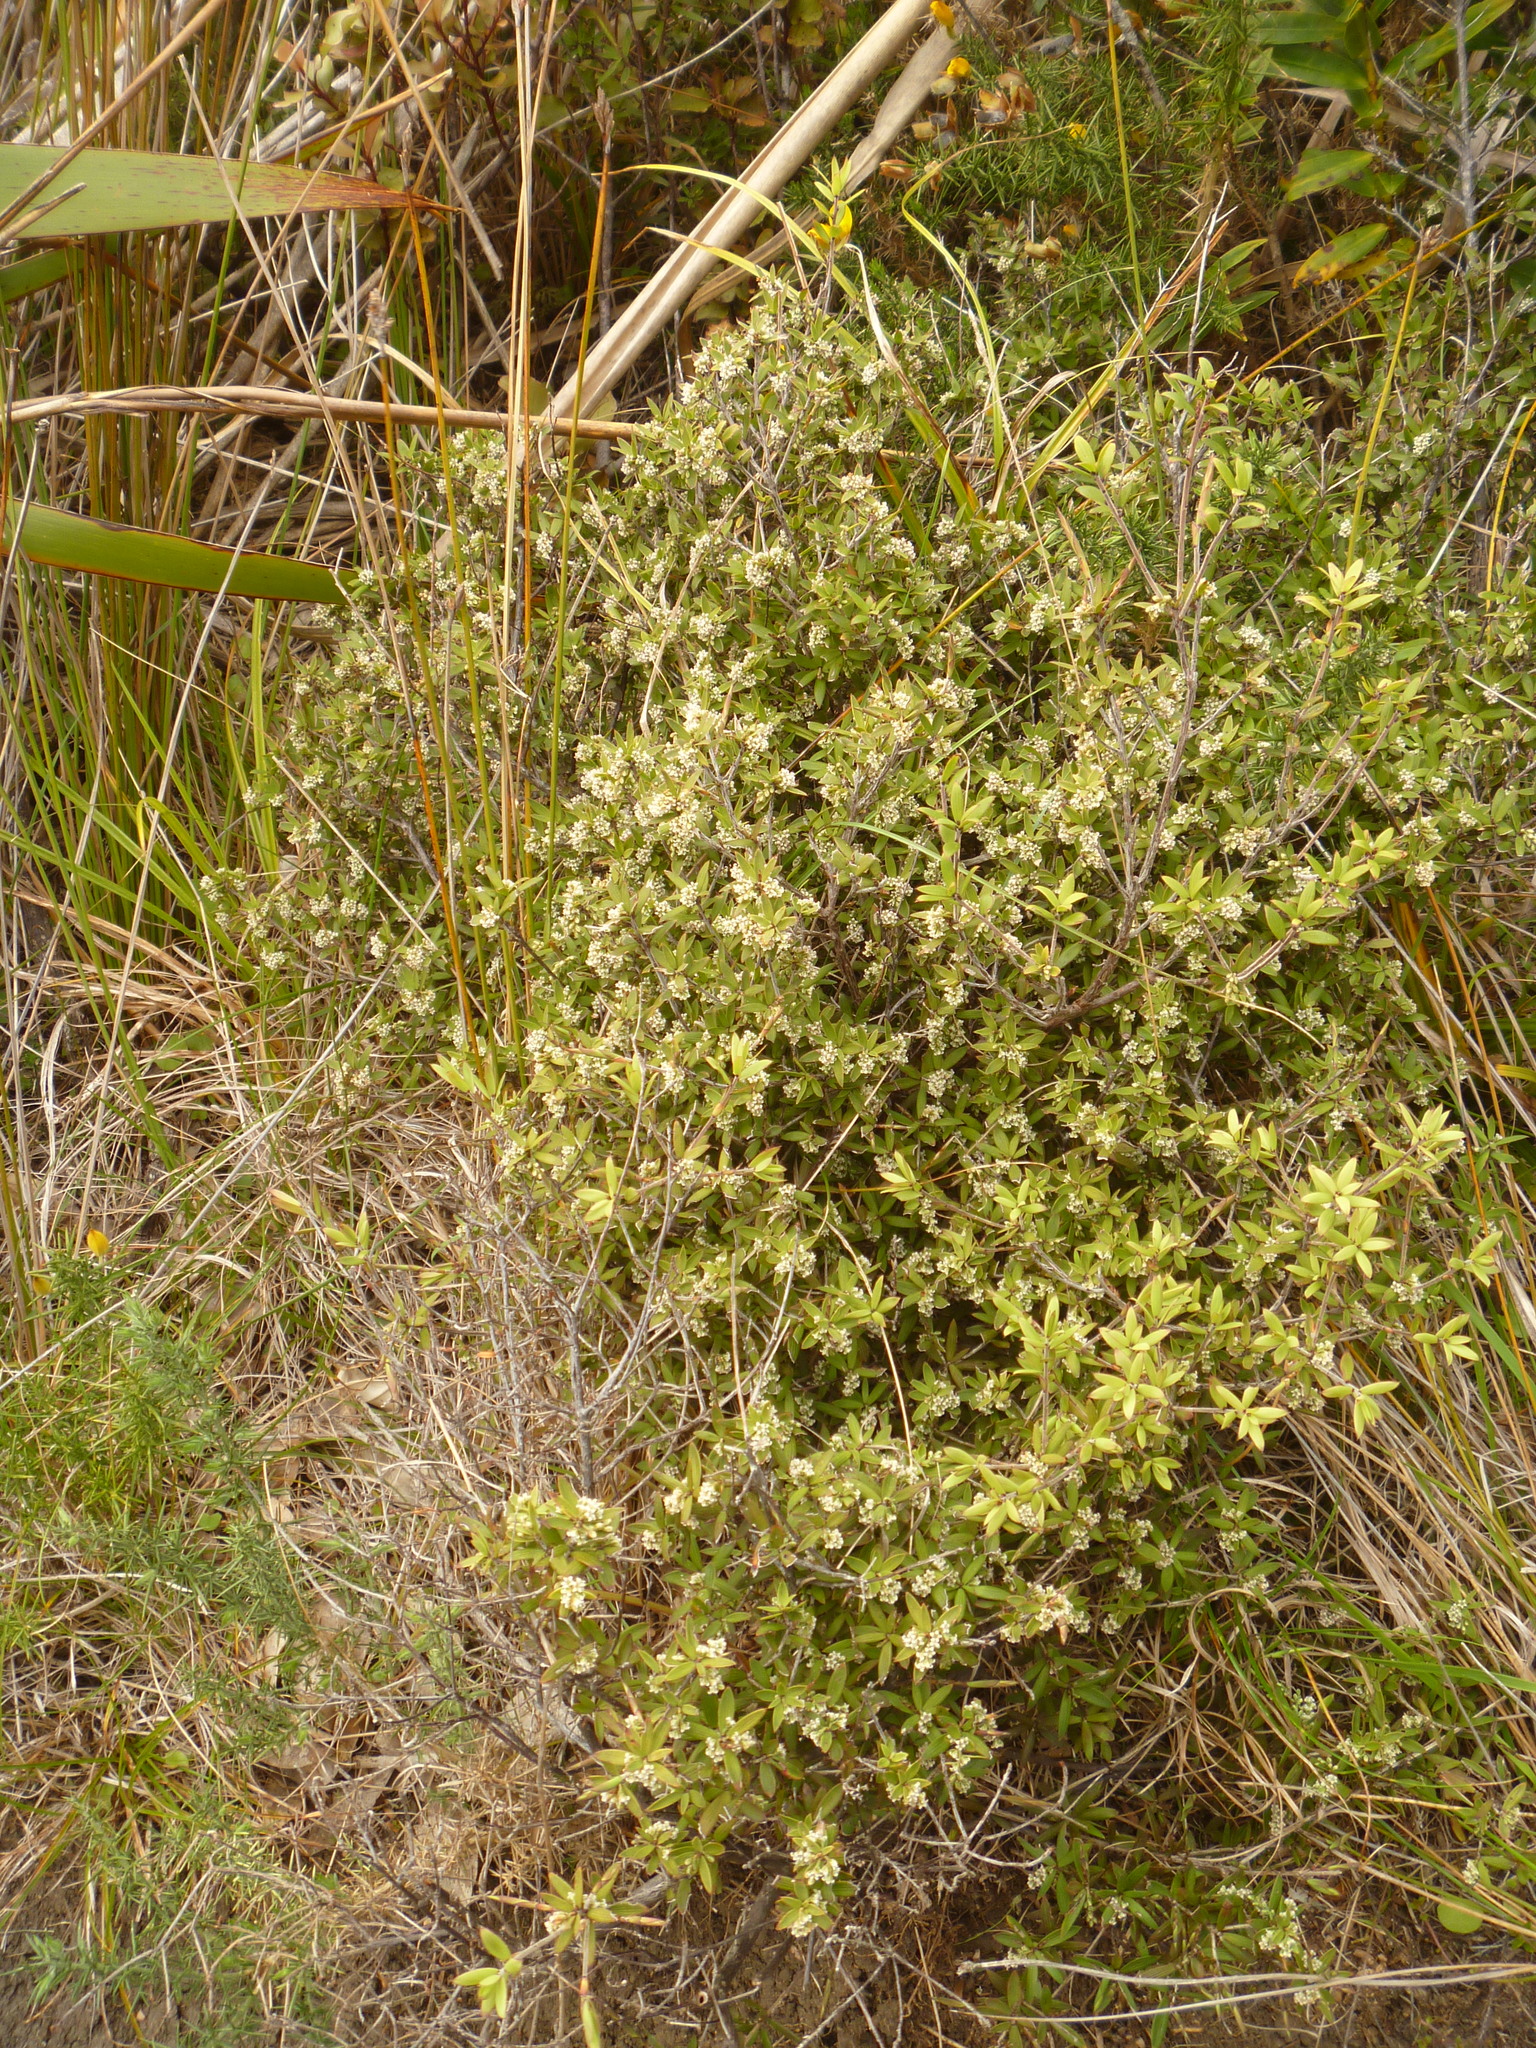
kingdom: Plantae
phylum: Tracheophyta
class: Magnoliopsida
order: Ericales
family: Ericaceae
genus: Leucopogon
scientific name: Leucopogon fasciculatus
